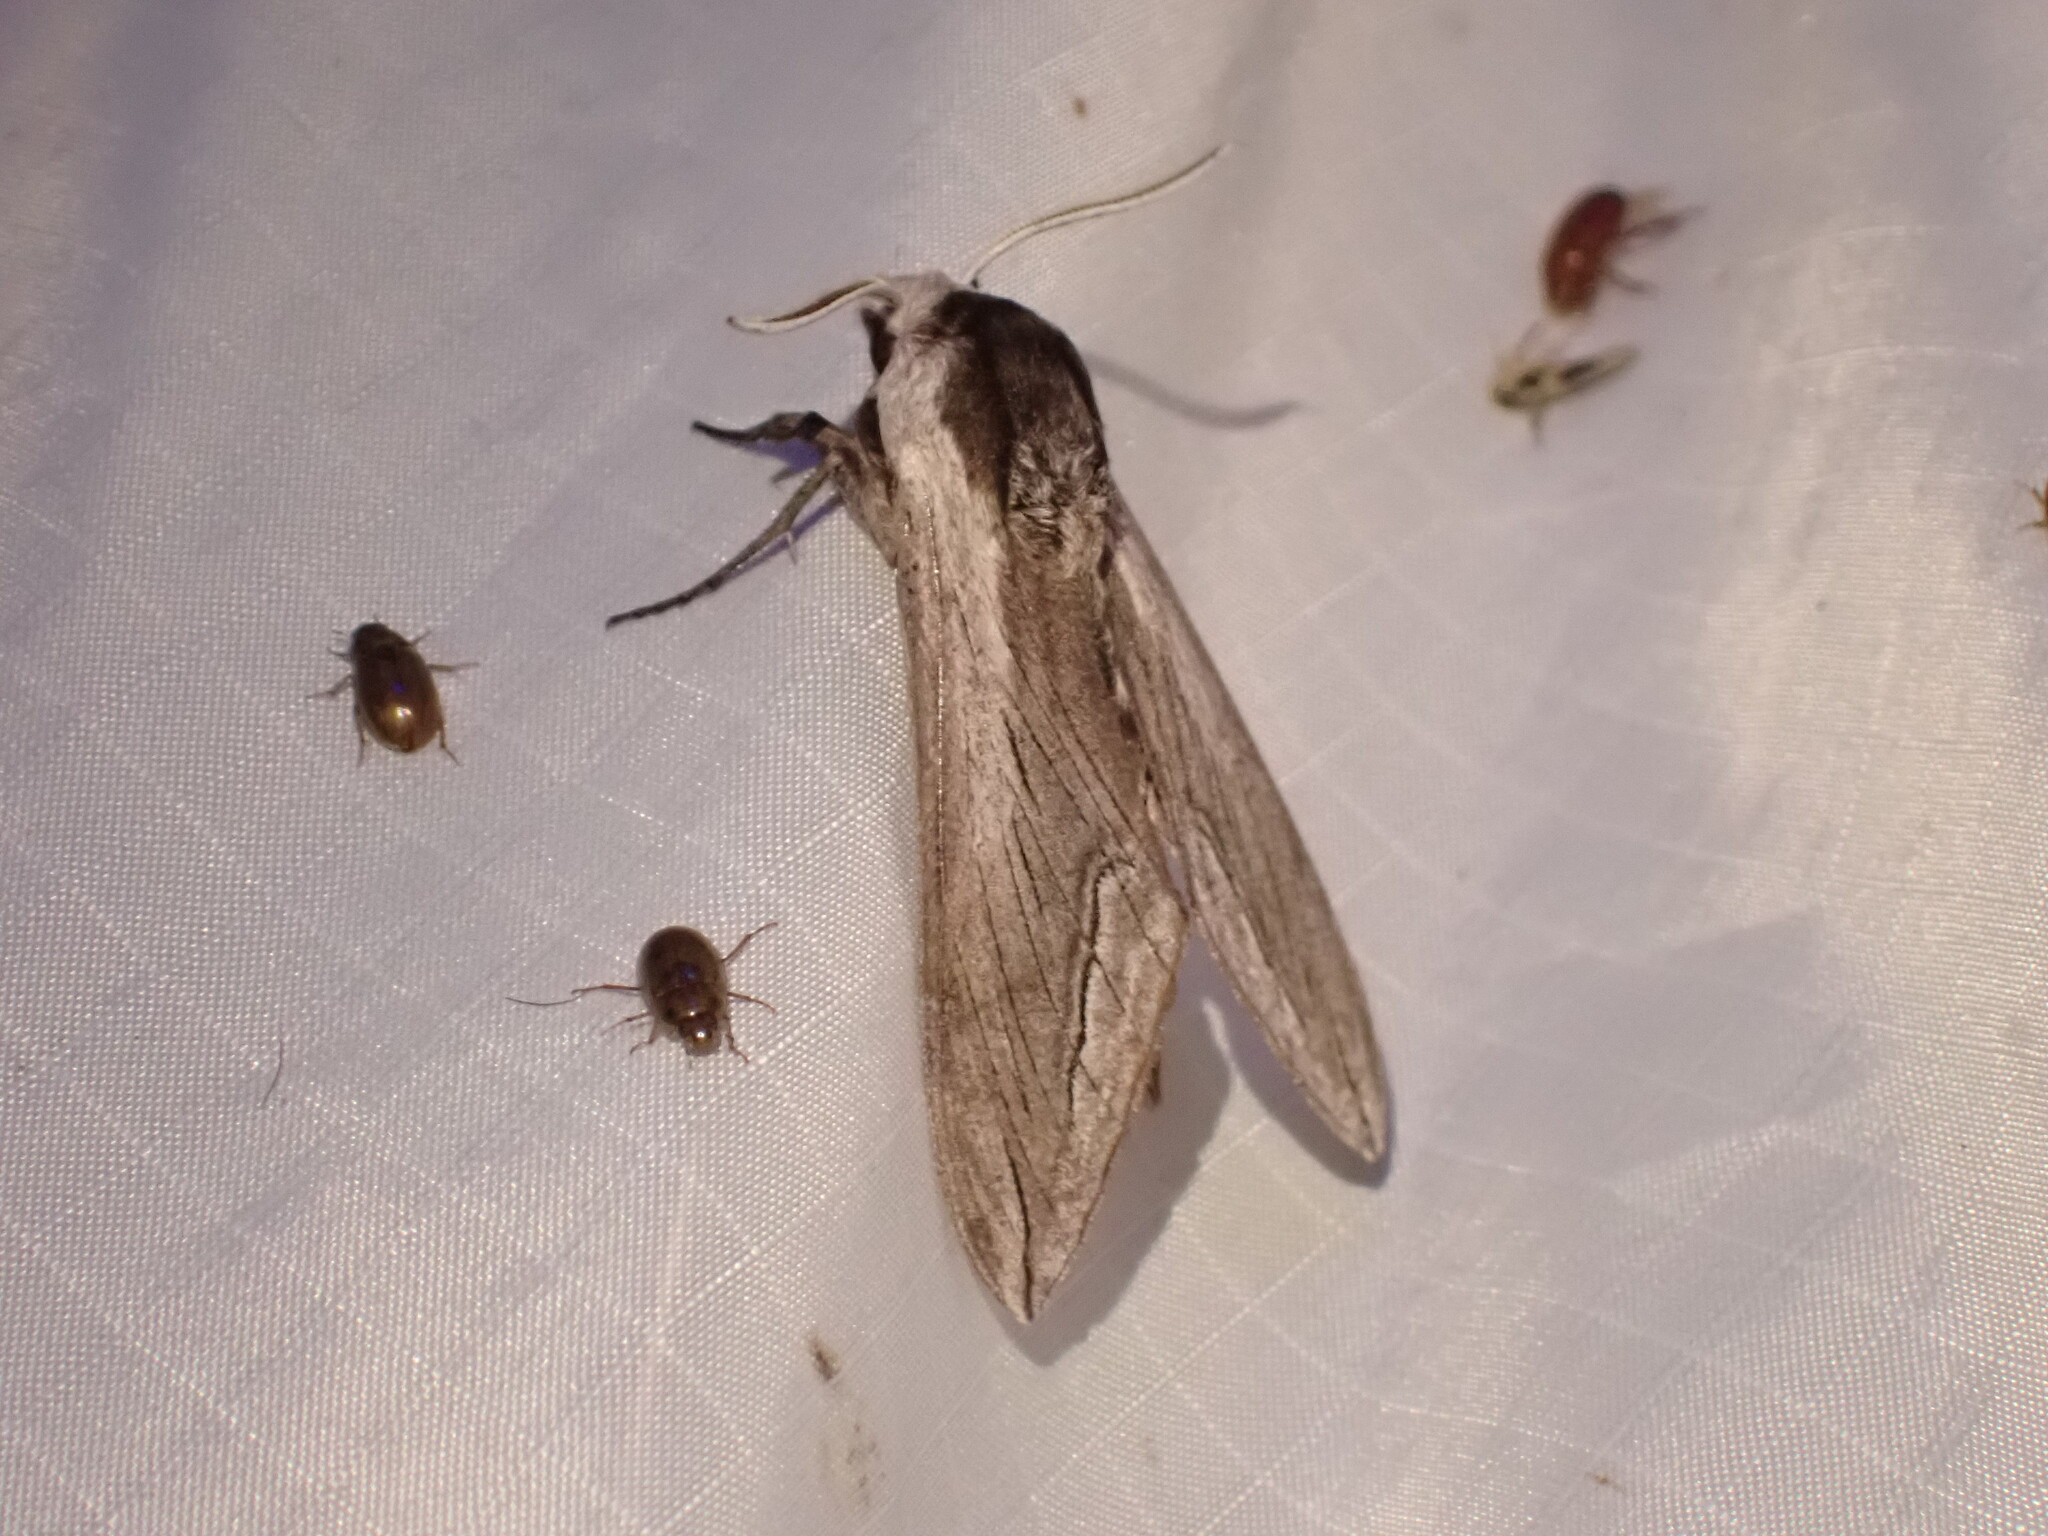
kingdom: Animalia
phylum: Arthropoda
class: Insecta
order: Lepidoptera
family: Sphingidae
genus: Sphinx
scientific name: Sphinx vashti
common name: Snowberry sphinx
